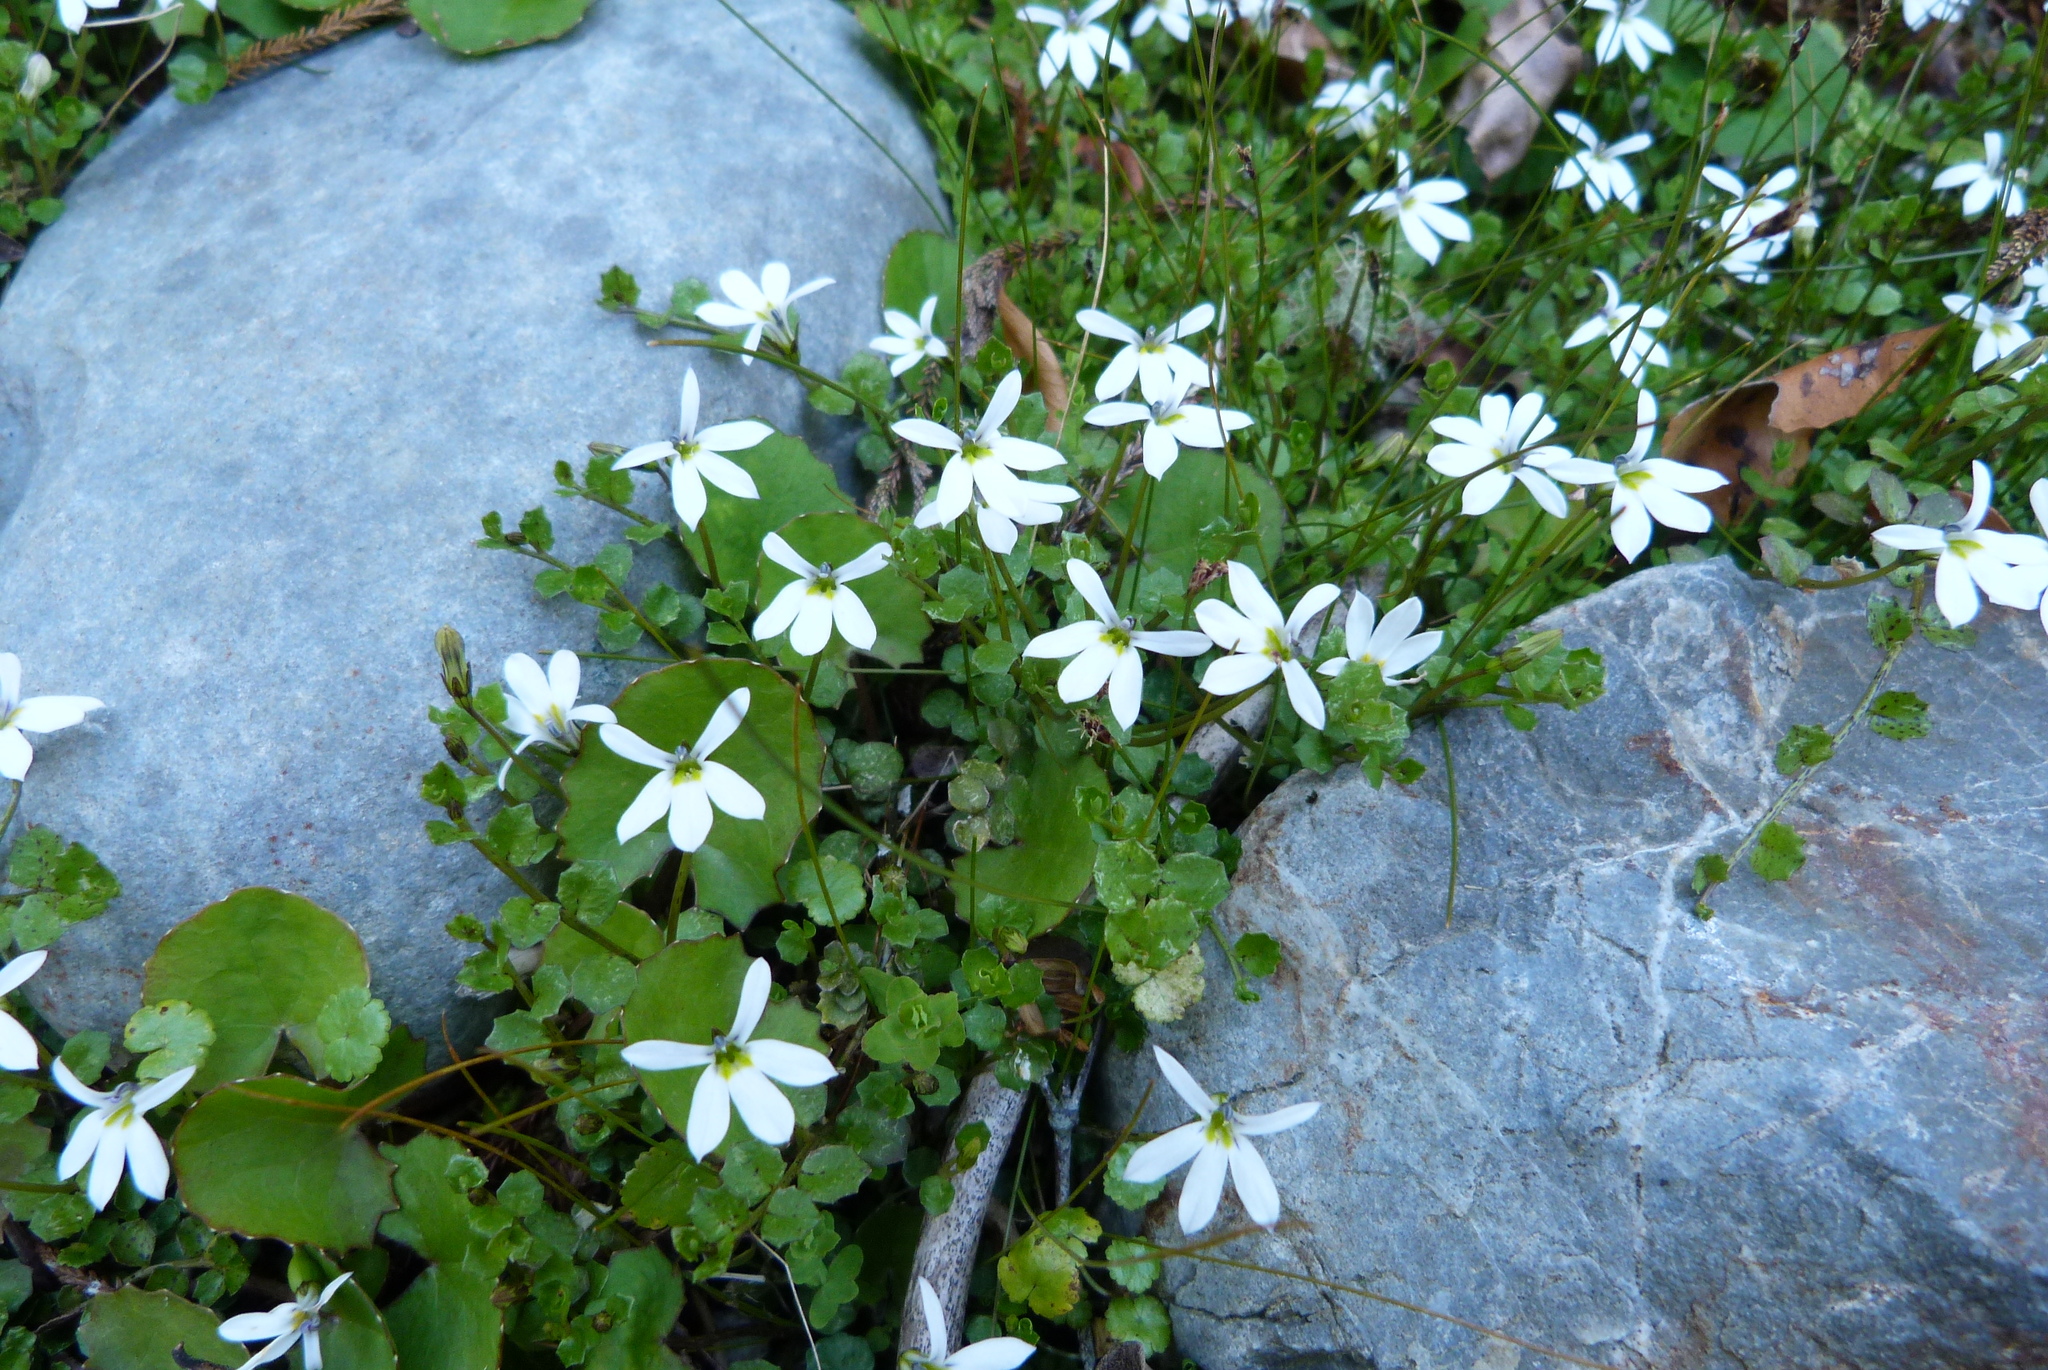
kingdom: Plantae
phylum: Tracheophyta
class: Magnoliopsida
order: Asterales
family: Campanulaceae
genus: Lobelia
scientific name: Lobelia angulata
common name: Lawn lobelia
